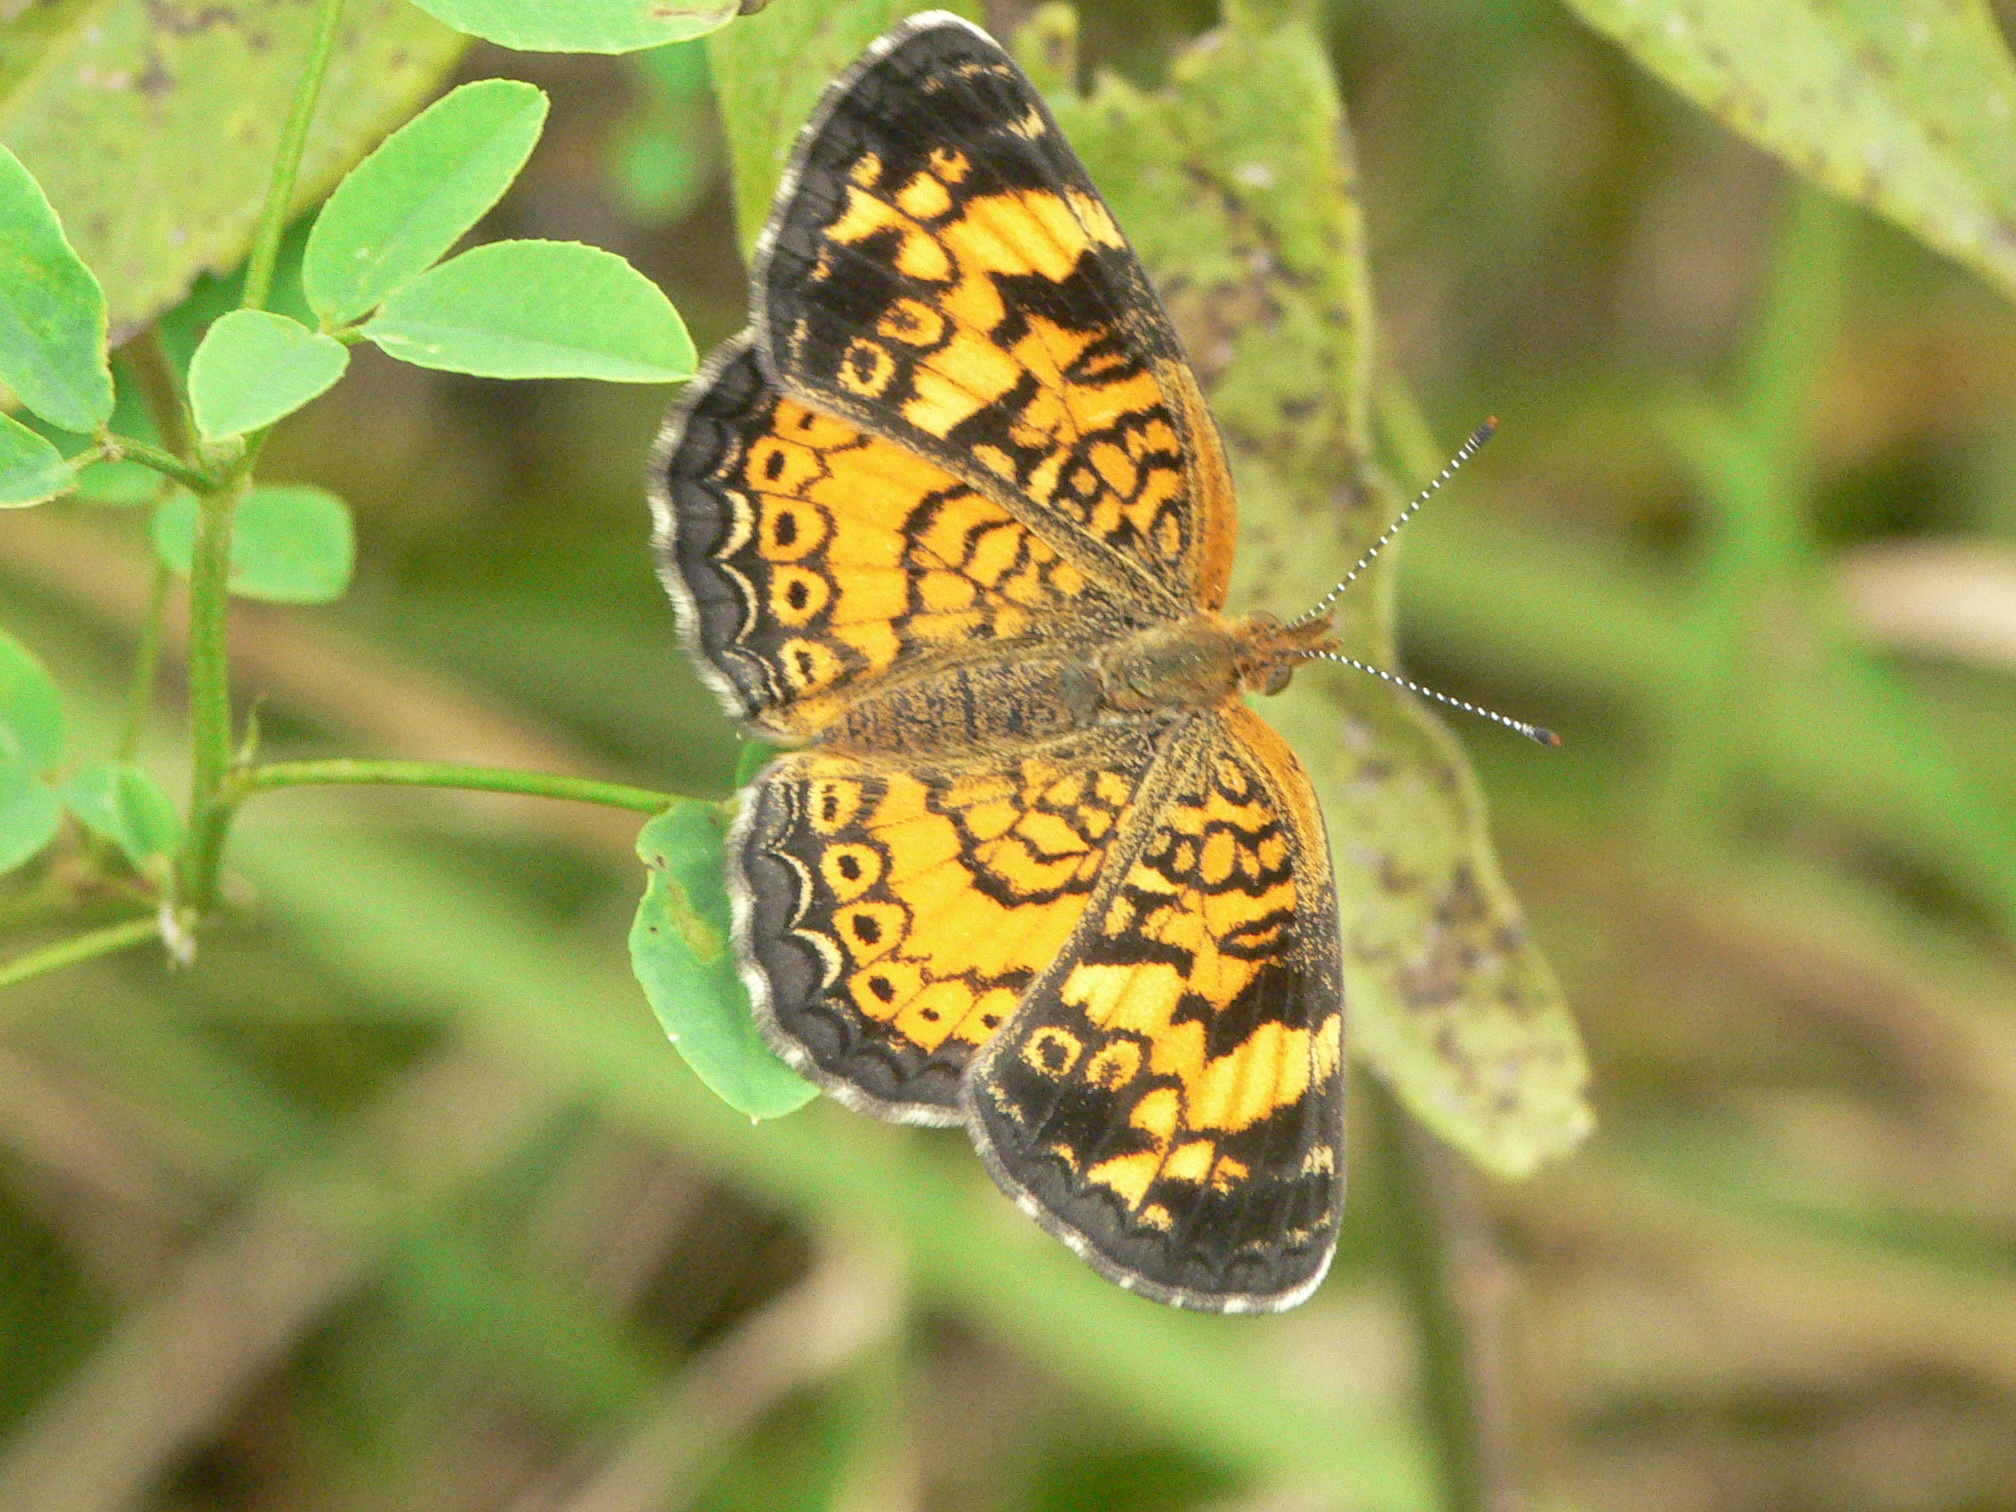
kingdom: Animalia
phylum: Arthropoda
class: Insecta
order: Lepidoptera
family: Nymphalidae
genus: Phyciodes
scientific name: Phyciodes tharos
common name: Pearl crescent
